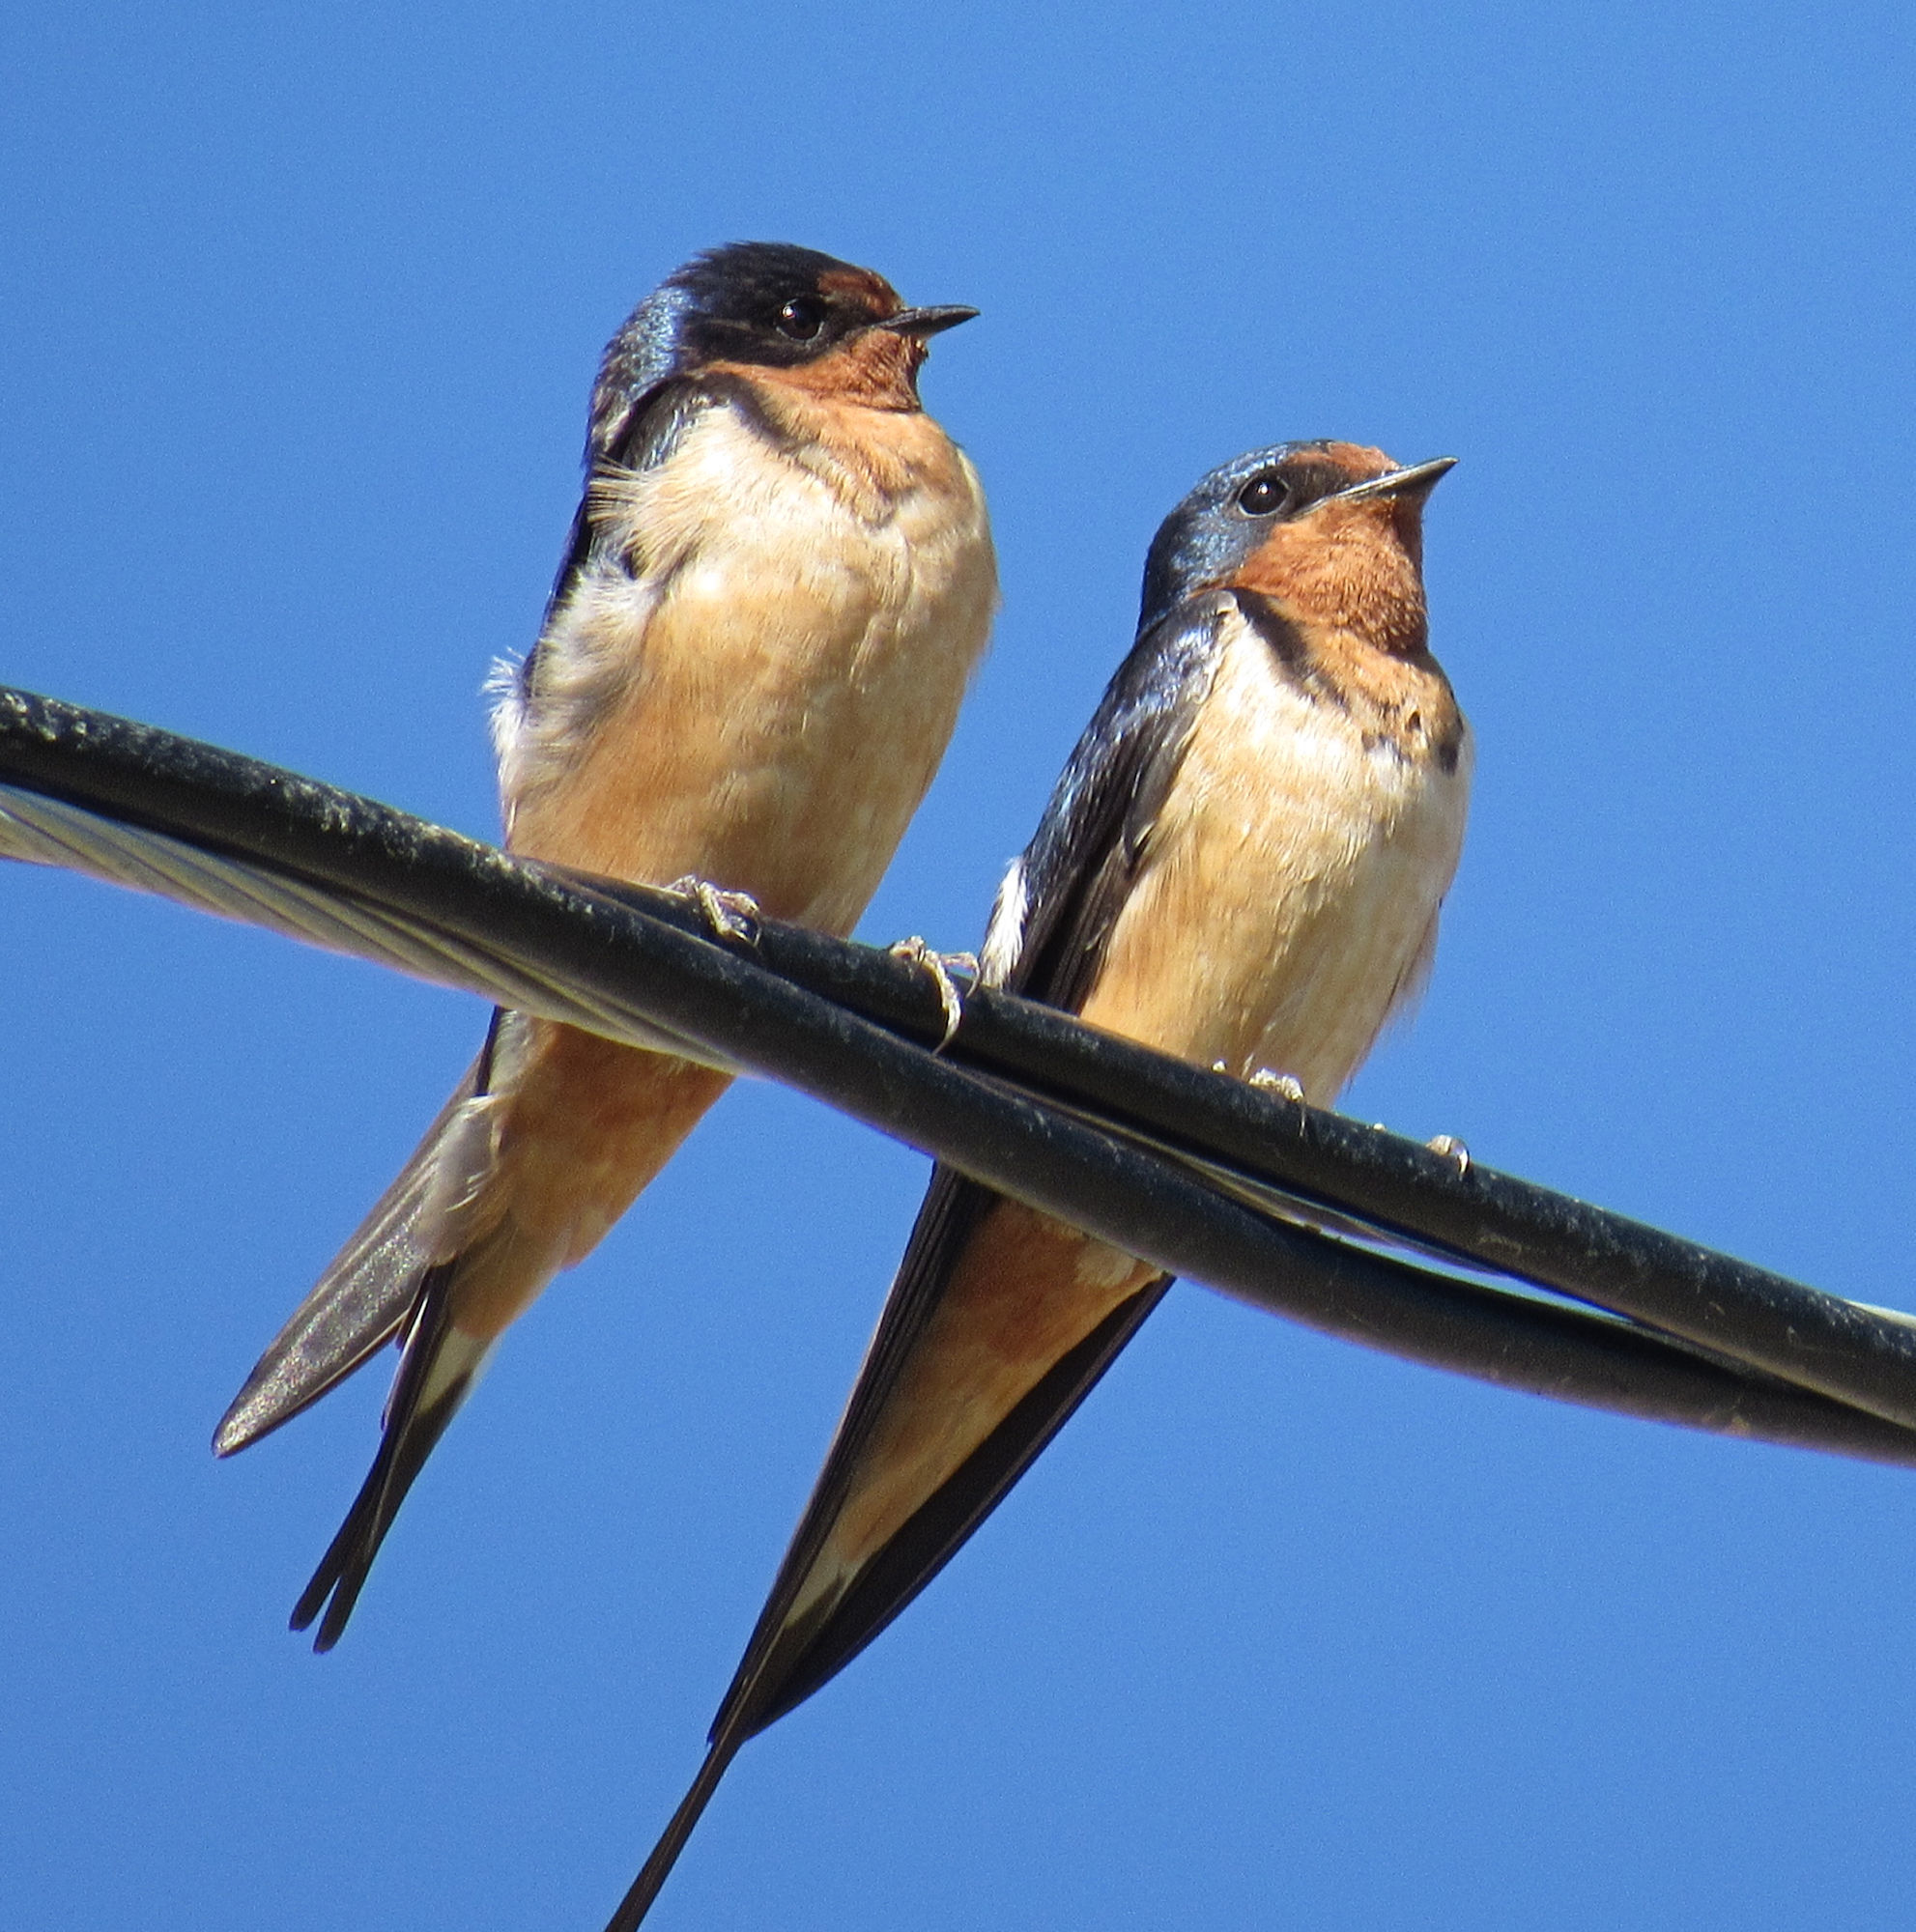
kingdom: Animalia
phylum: Chordata
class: Aves
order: Passeriformes
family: Hirundinidae
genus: Hirundo
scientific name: Hirundo rustica
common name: Barn swallow
